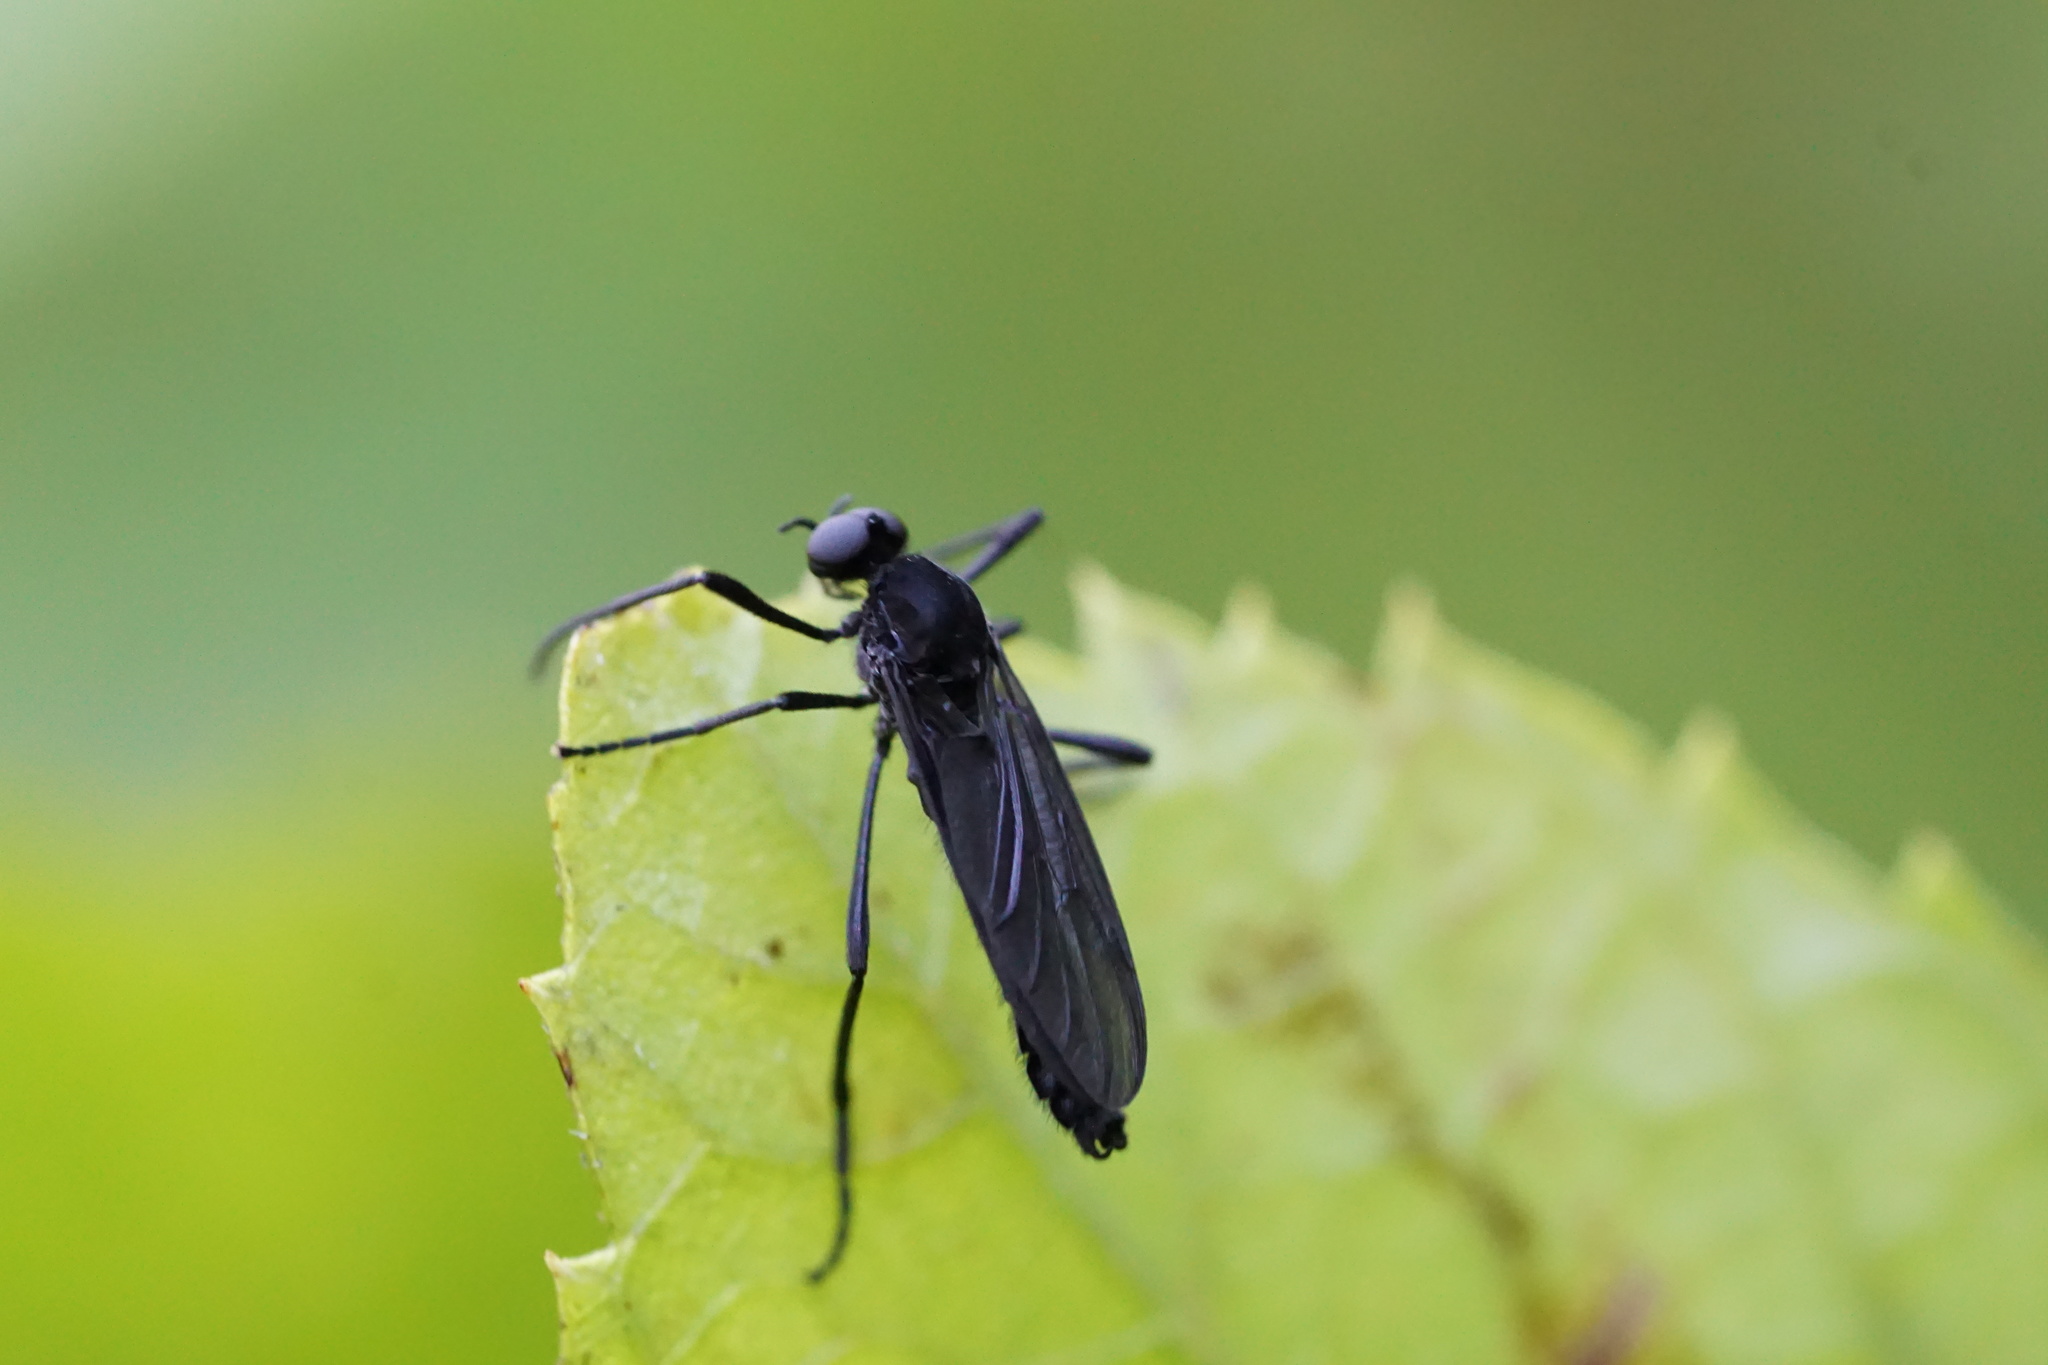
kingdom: Animalia
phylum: Arthropoda
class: Insecta
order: Diptera
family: Bibionidae
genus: Penthetria
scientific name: Penthetria heteroptera
